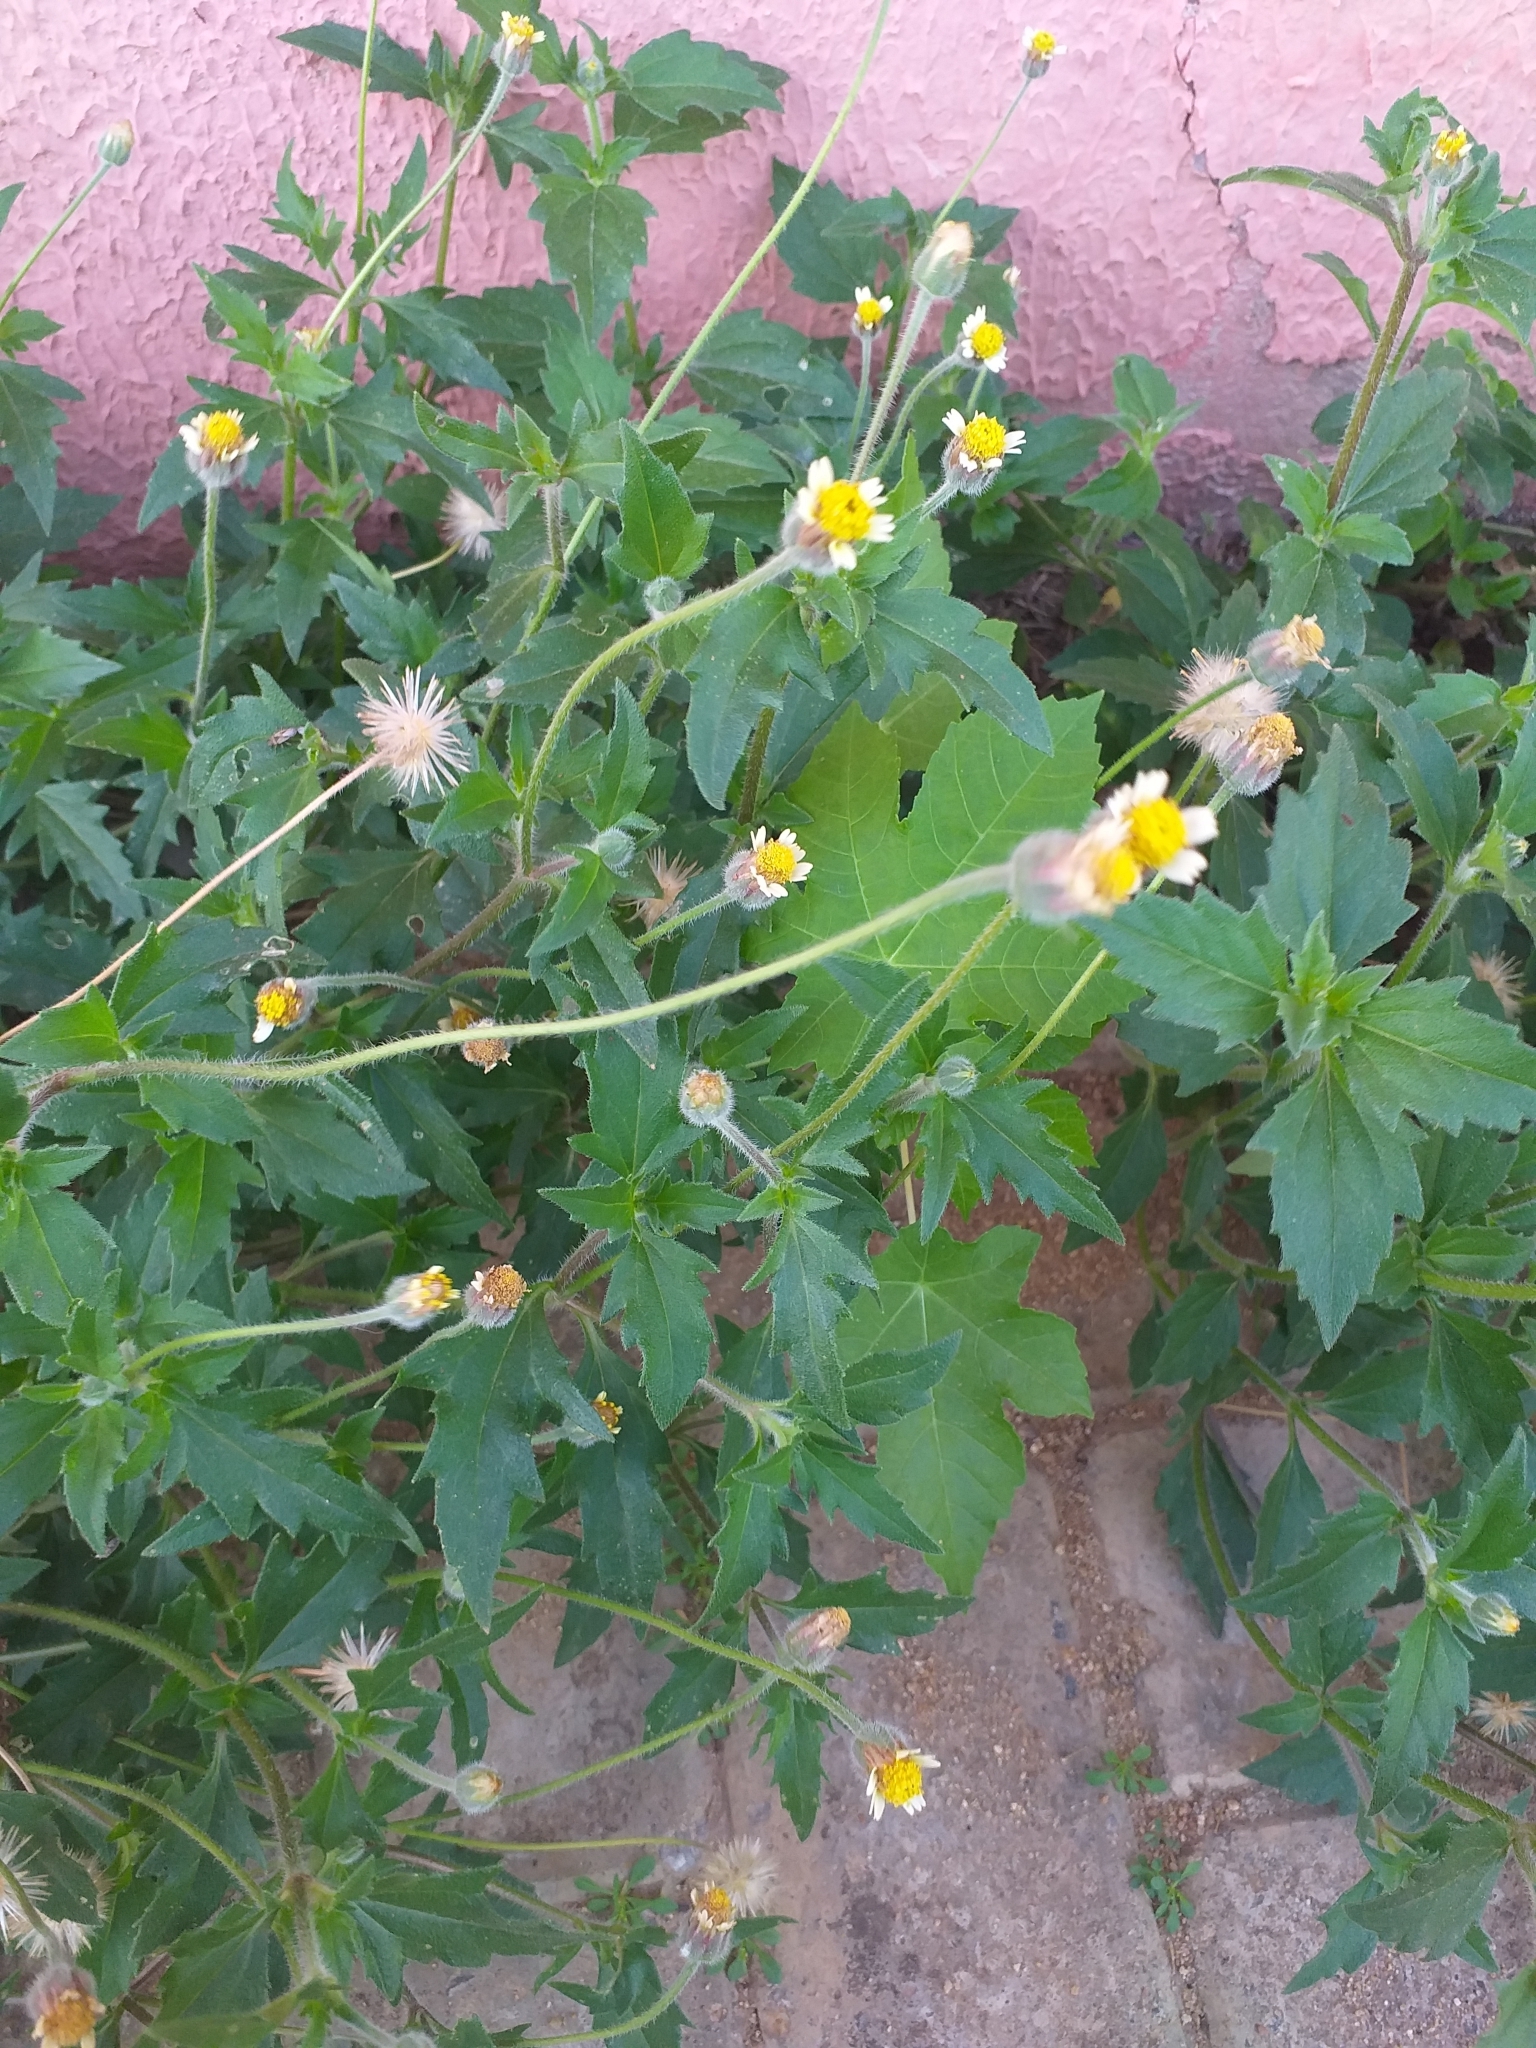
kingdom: Plantae
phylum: Tracheophyta
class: Magnoliopsida
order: Asterales
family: Asteraceae
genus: Tridax
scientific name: Tridax procumbens
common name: Coatbuttons
